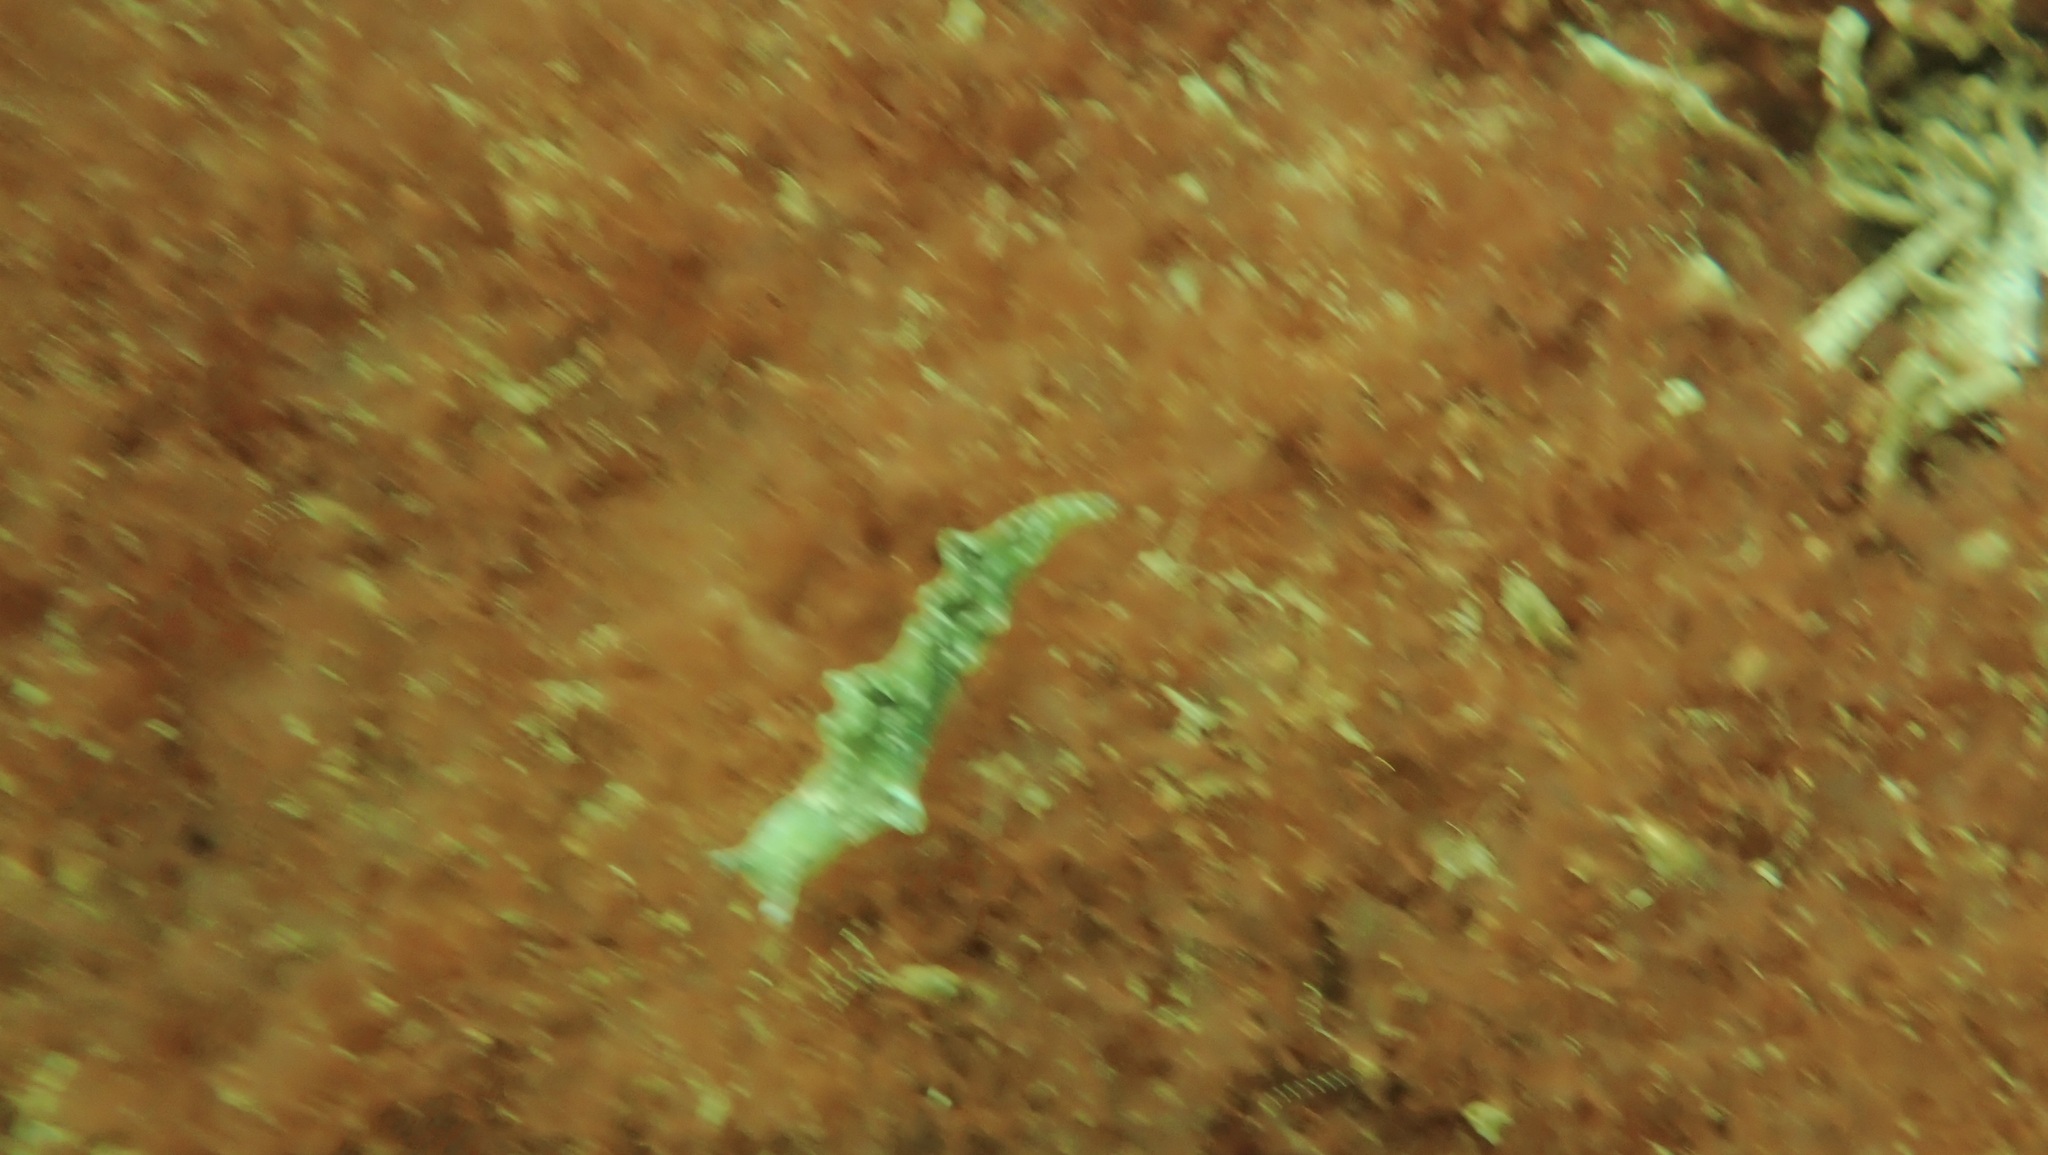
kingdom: Animalia
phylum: Mollusca
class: Gastropoda
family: Plakobranchidae
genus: Elysia
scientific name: Elysia viridis
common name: Green elysia
